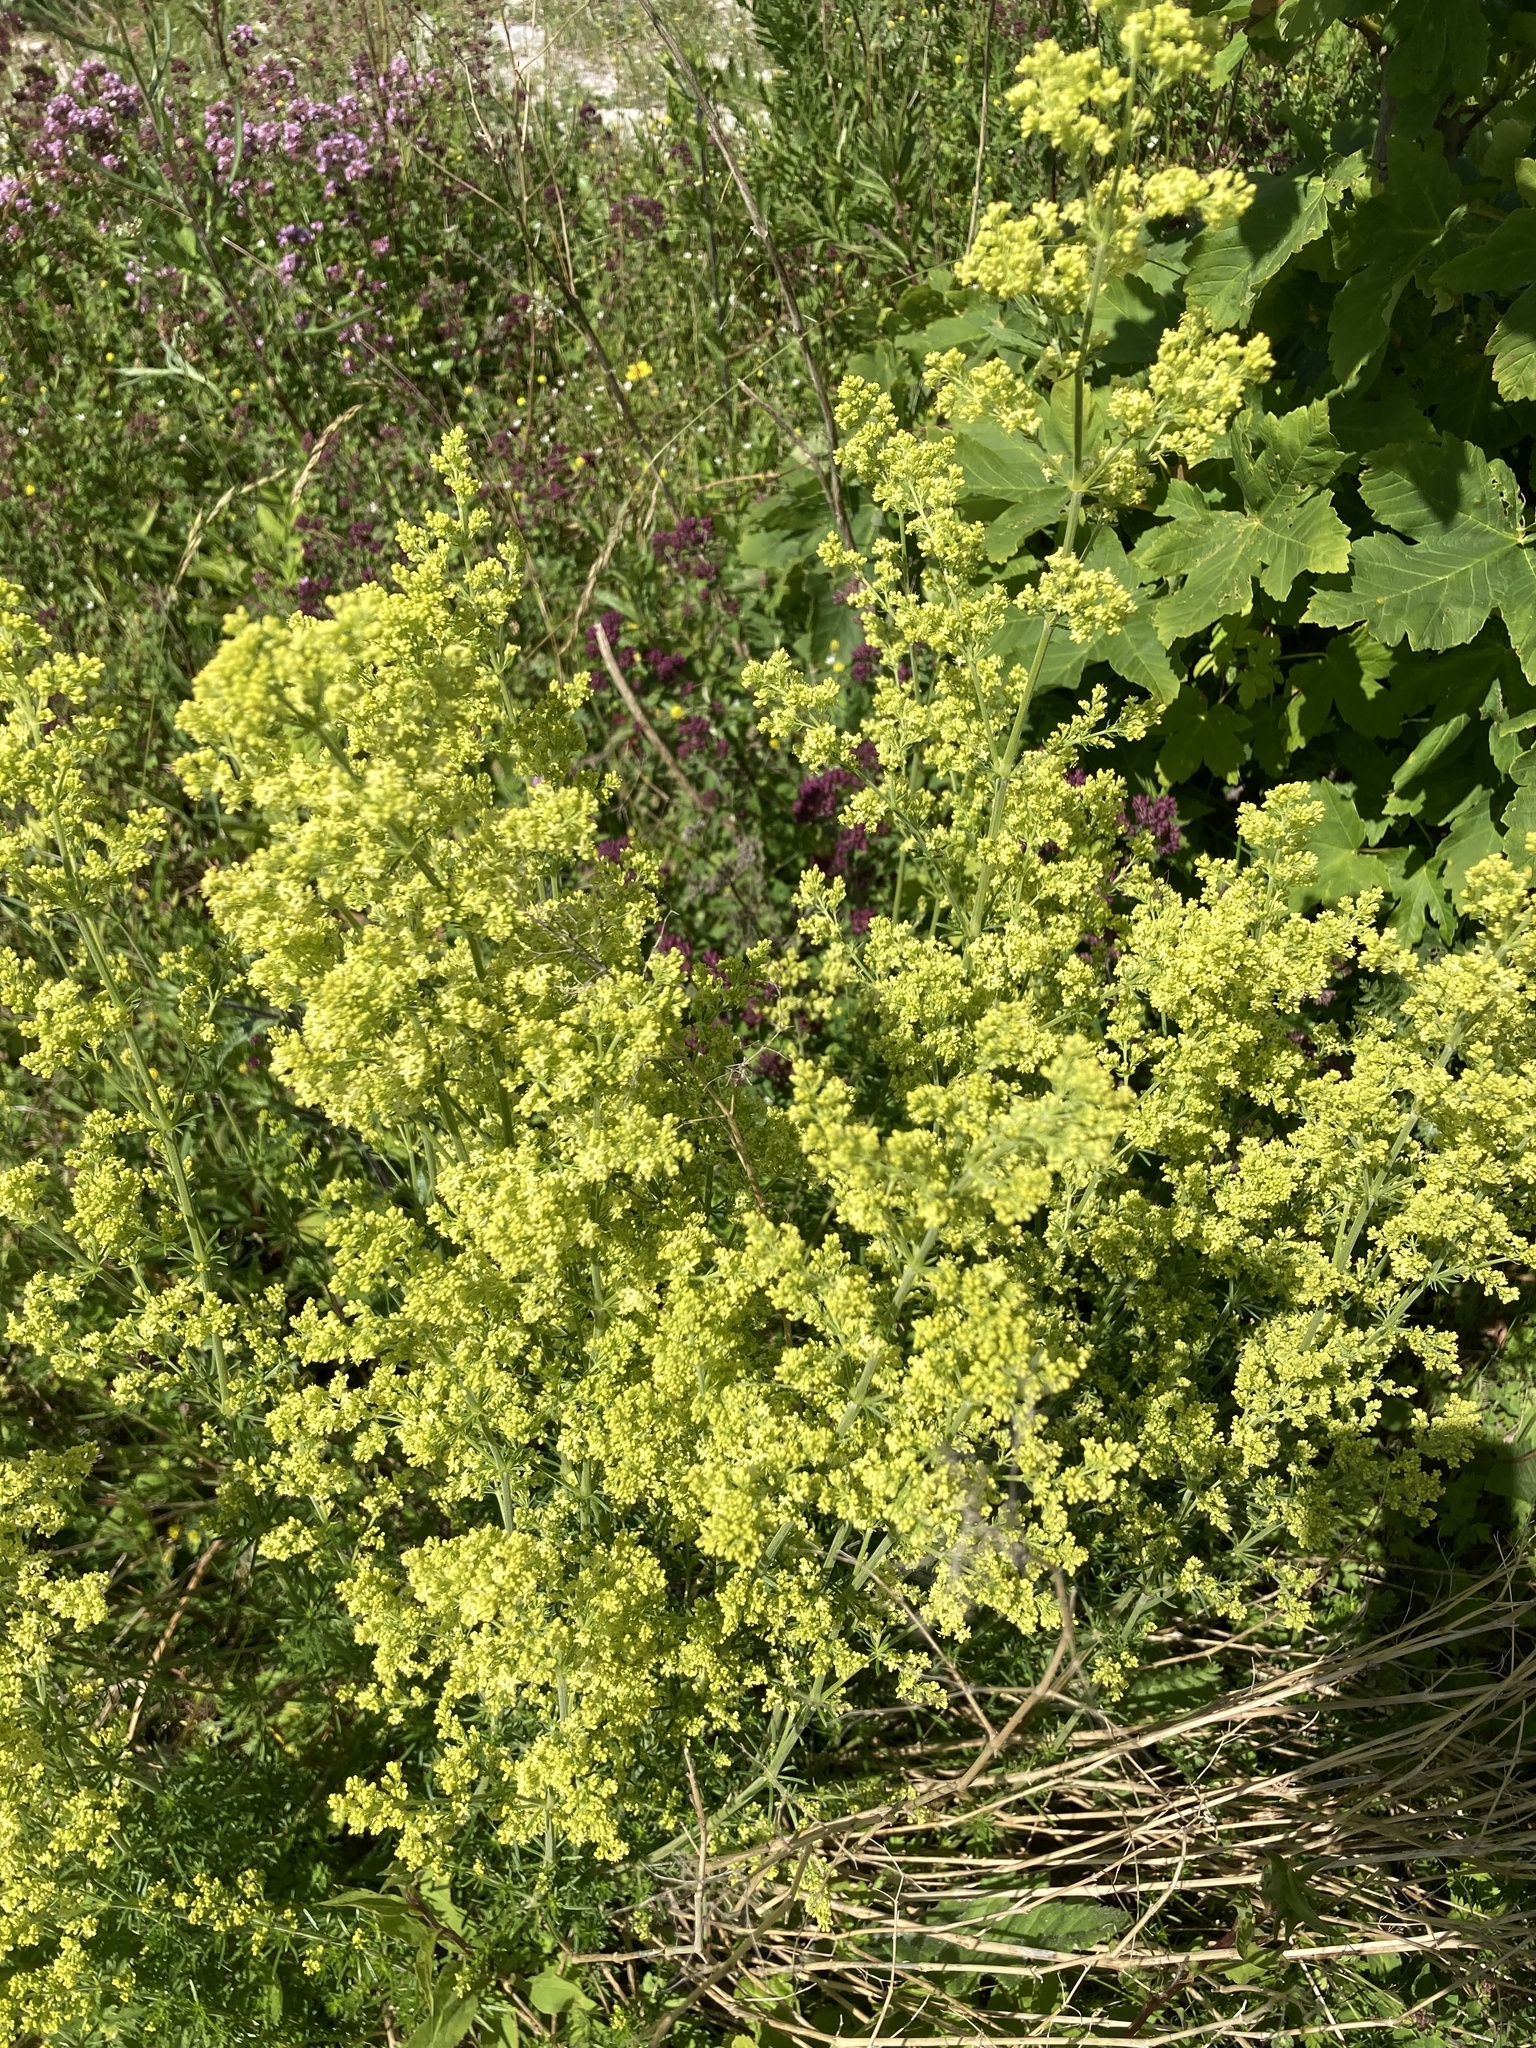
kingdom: Plantae
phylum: Tracheophyta
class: Magnoliopsida
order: Gentianales
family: Rubiaceae
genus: Galium
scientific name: Galium verum
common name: Lady's bedstraw
